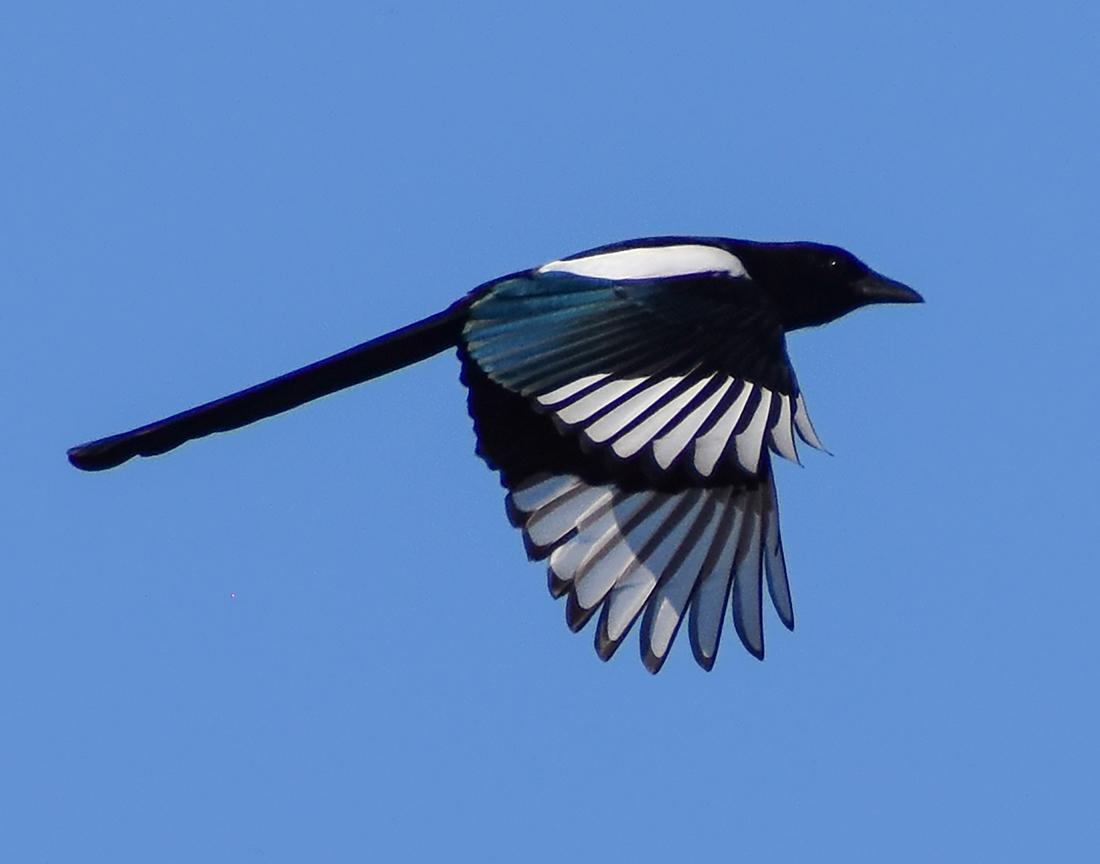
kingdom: Animalia
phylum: Chordata
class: Aves
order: Passeriformes
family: Corvidae
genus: Pica
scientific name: Pica pica
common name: Eurasian magpie
